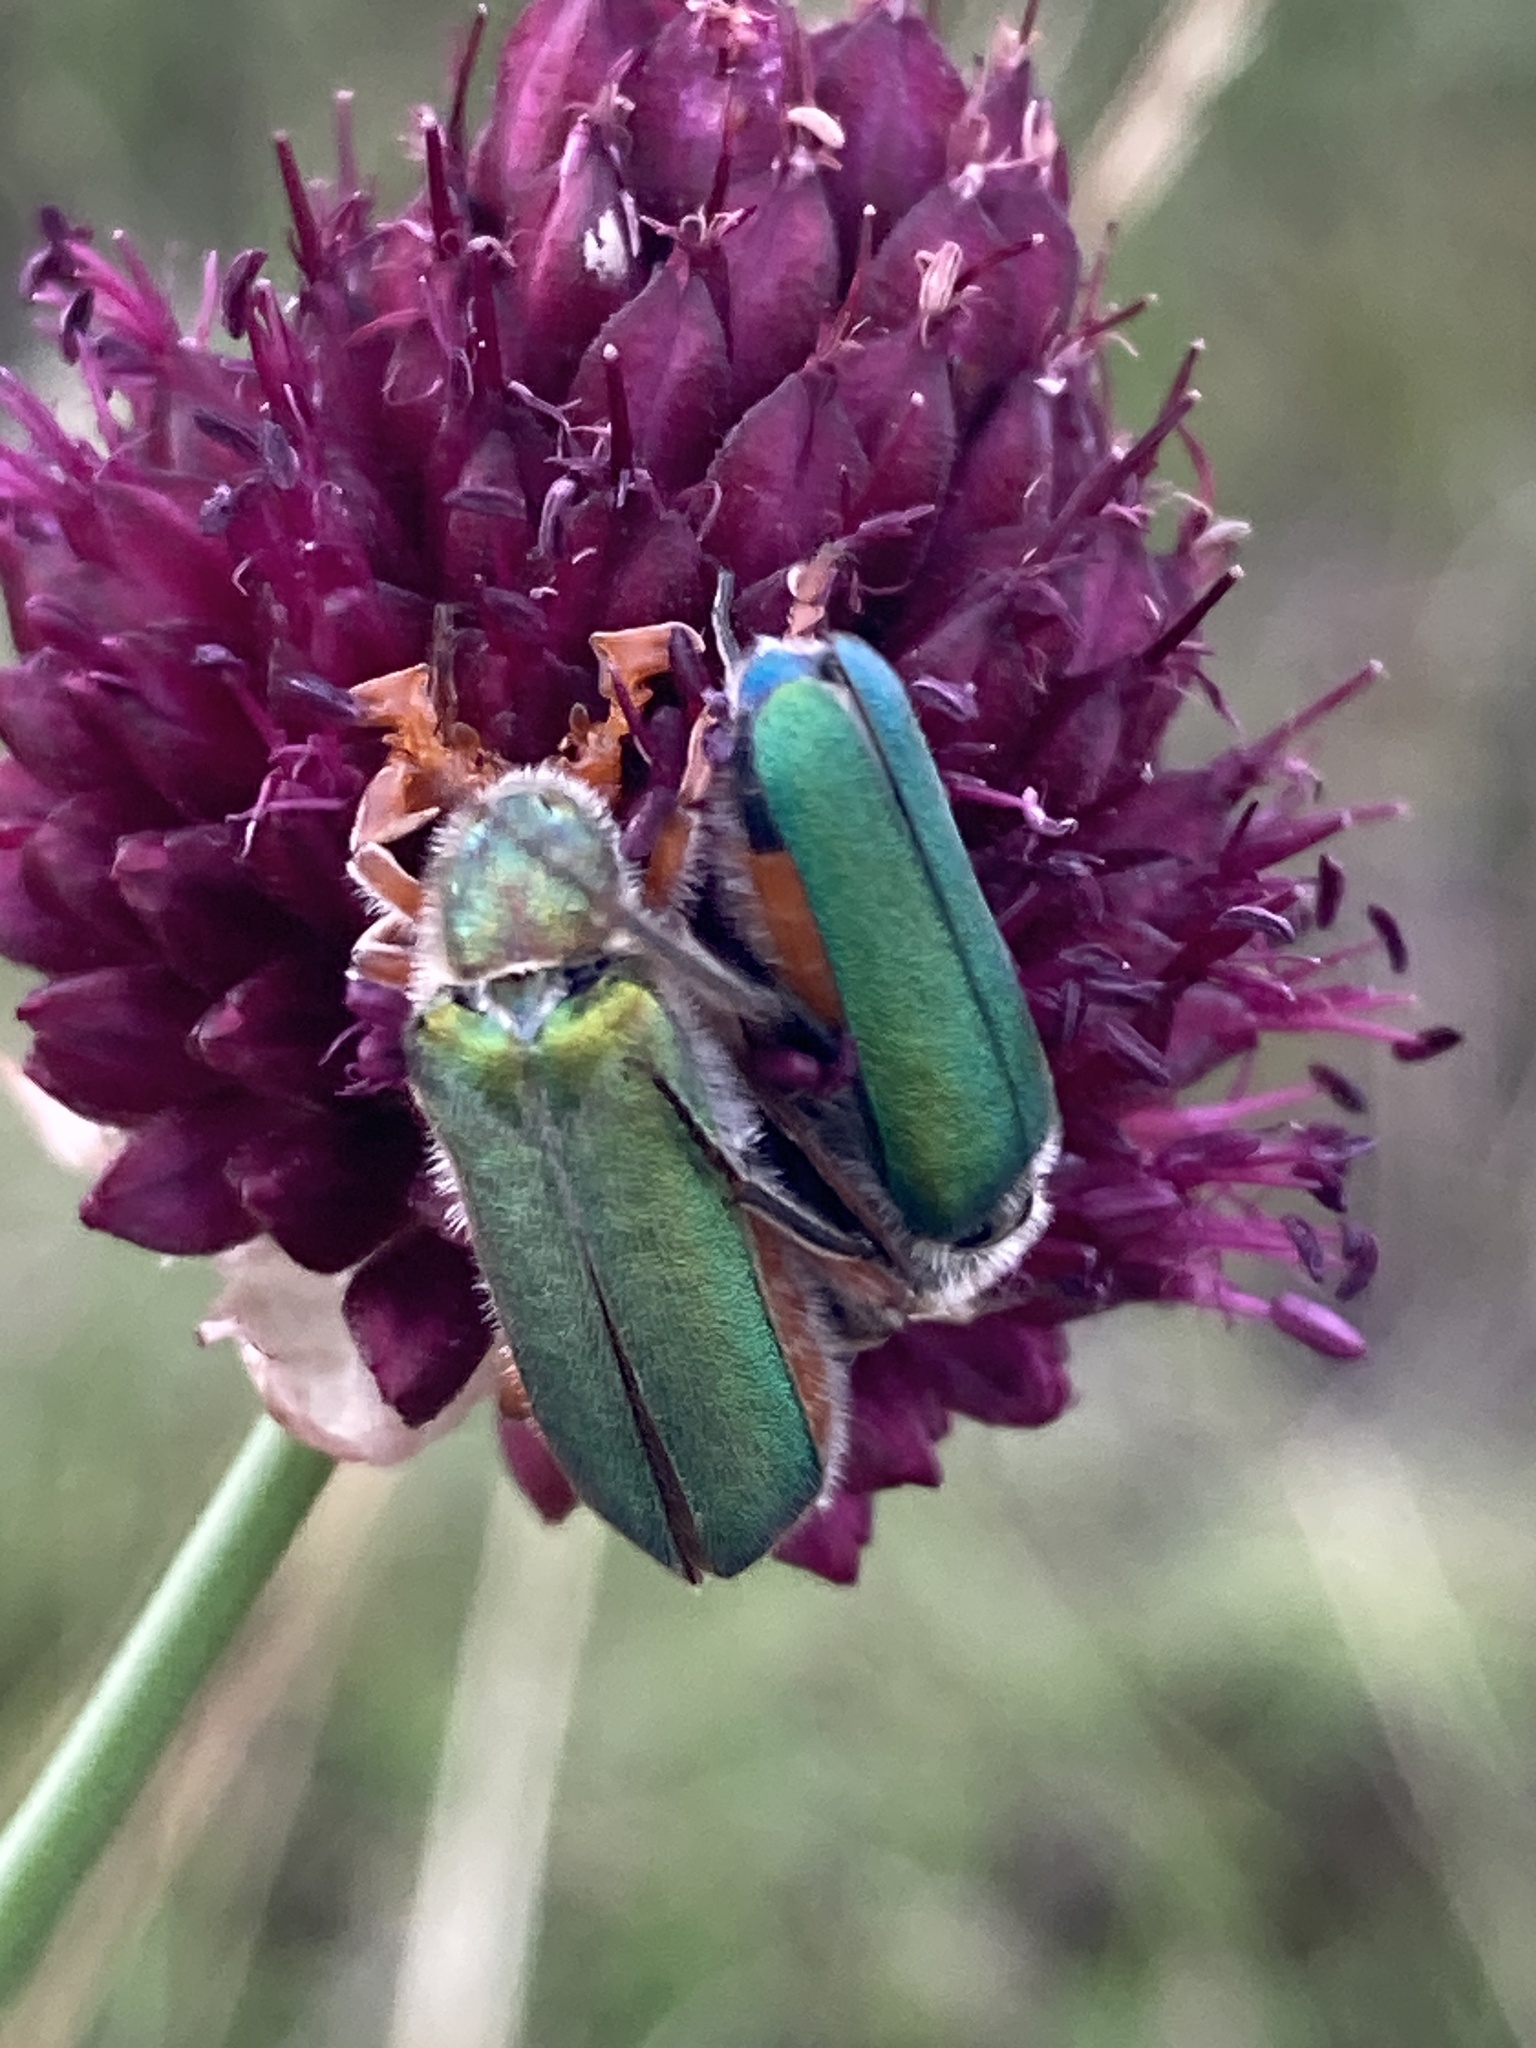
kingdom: Animalia
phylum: Arthropoda
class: Insecta
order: Coleoptera
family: Meloidae
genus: Cerocoma
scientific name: Cerocoma schreberi
